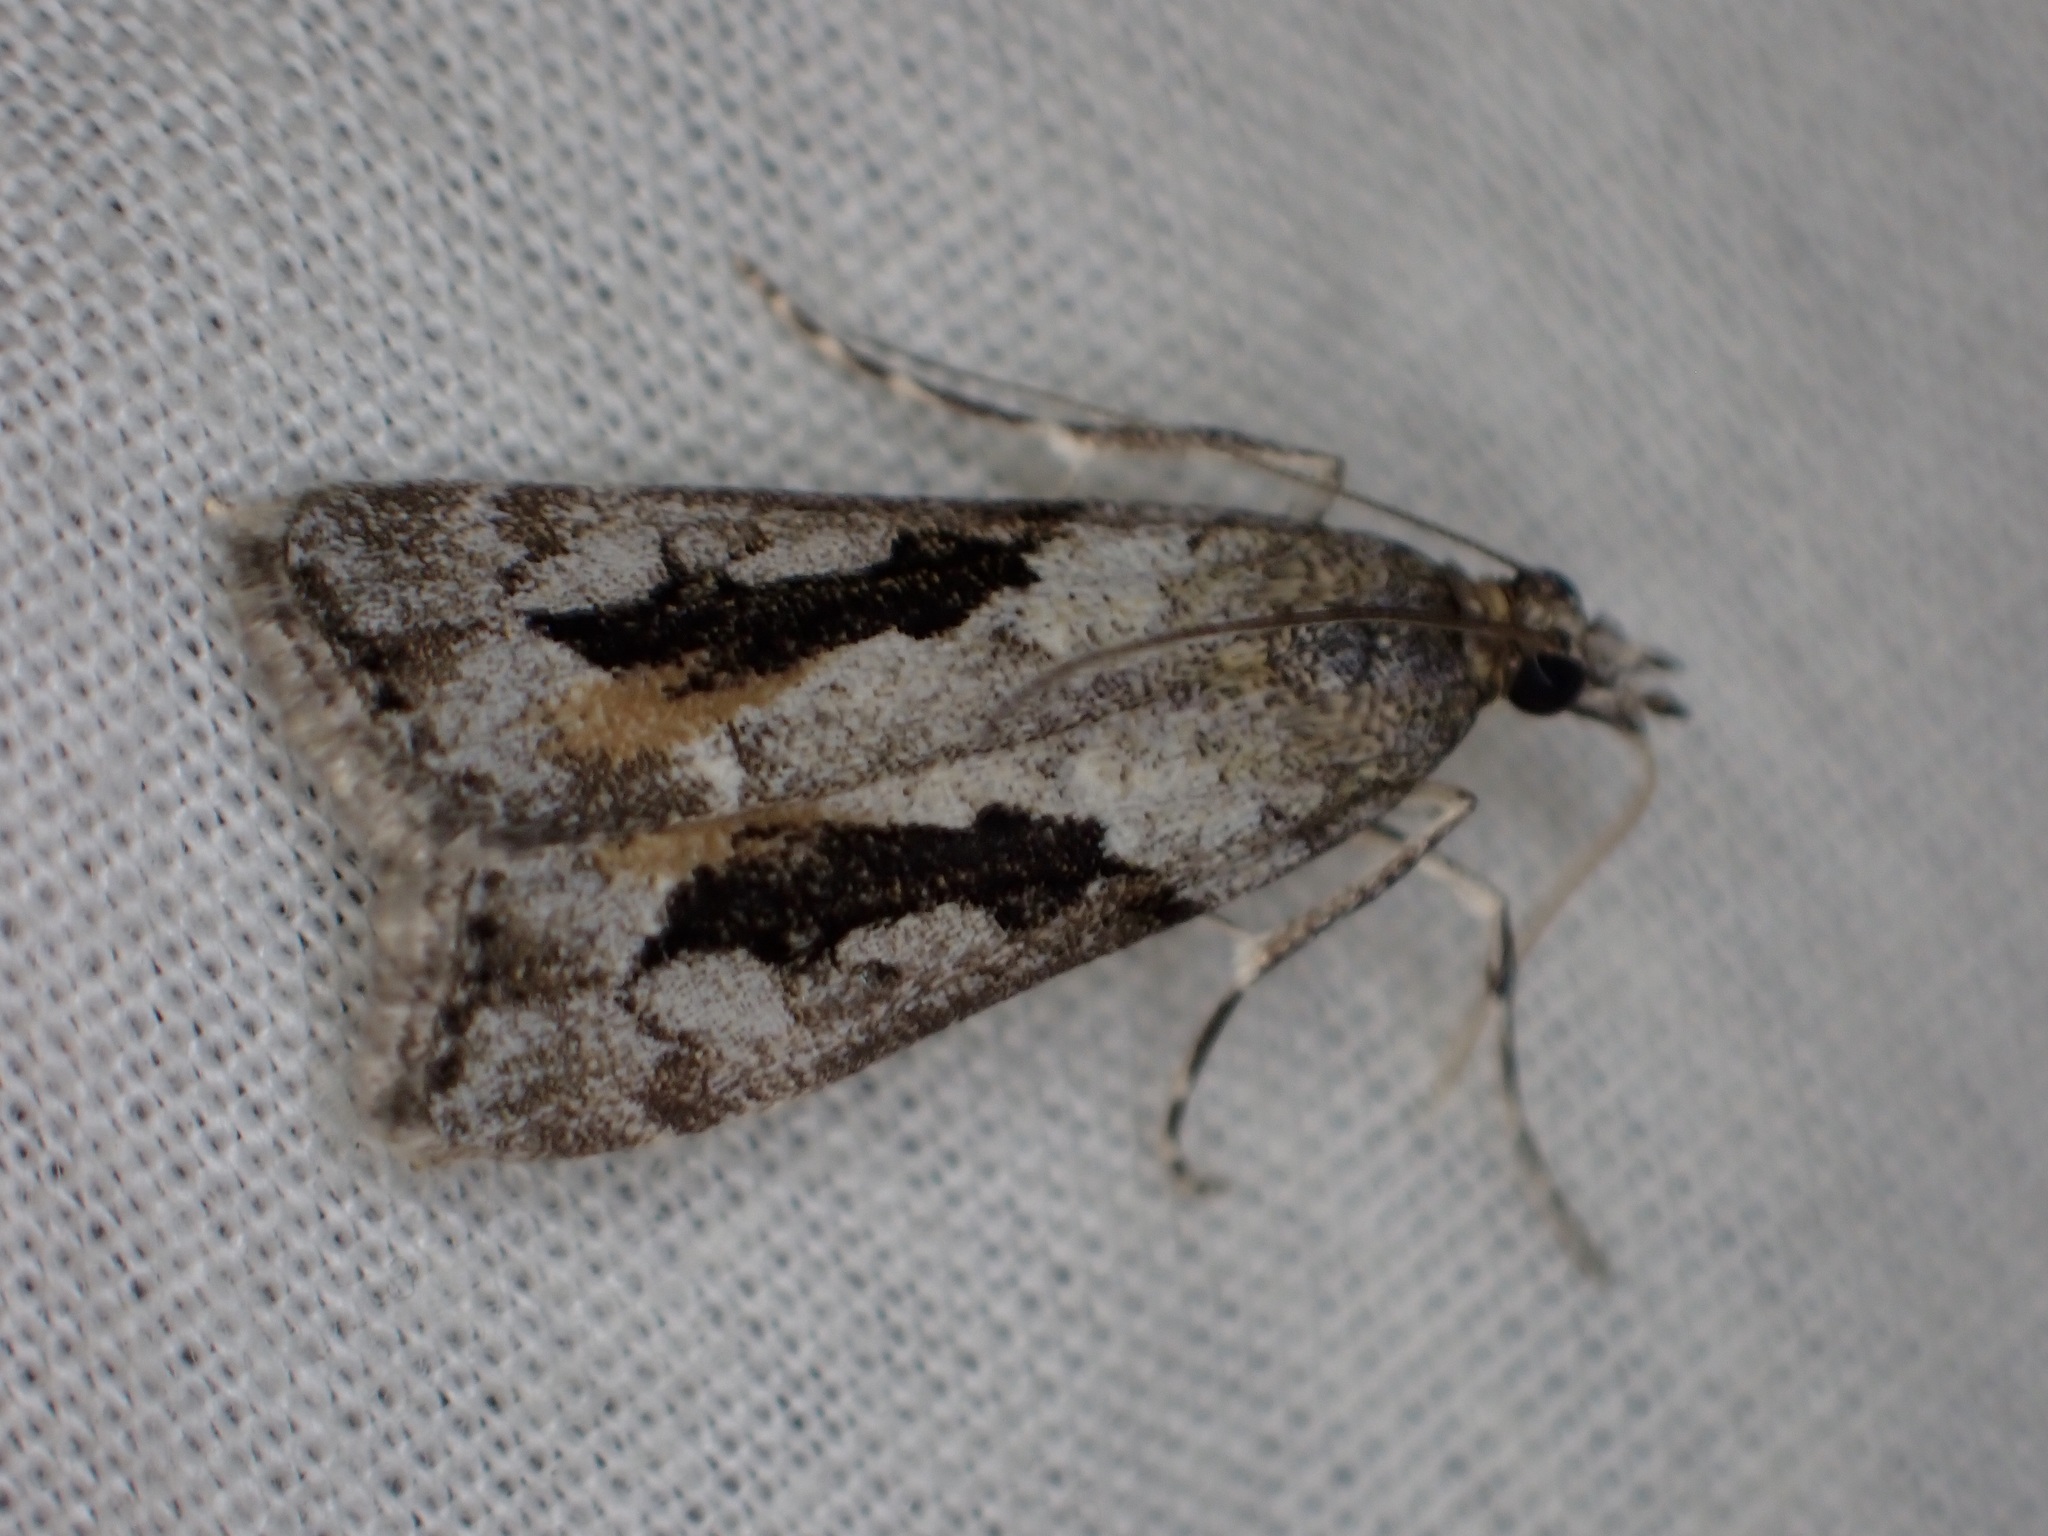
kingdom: Animalia
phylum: Arthropoda
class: Insecta
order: Lepidoptera
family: Crambidae
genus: Eudonia
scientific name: Eudonia submarginalis
